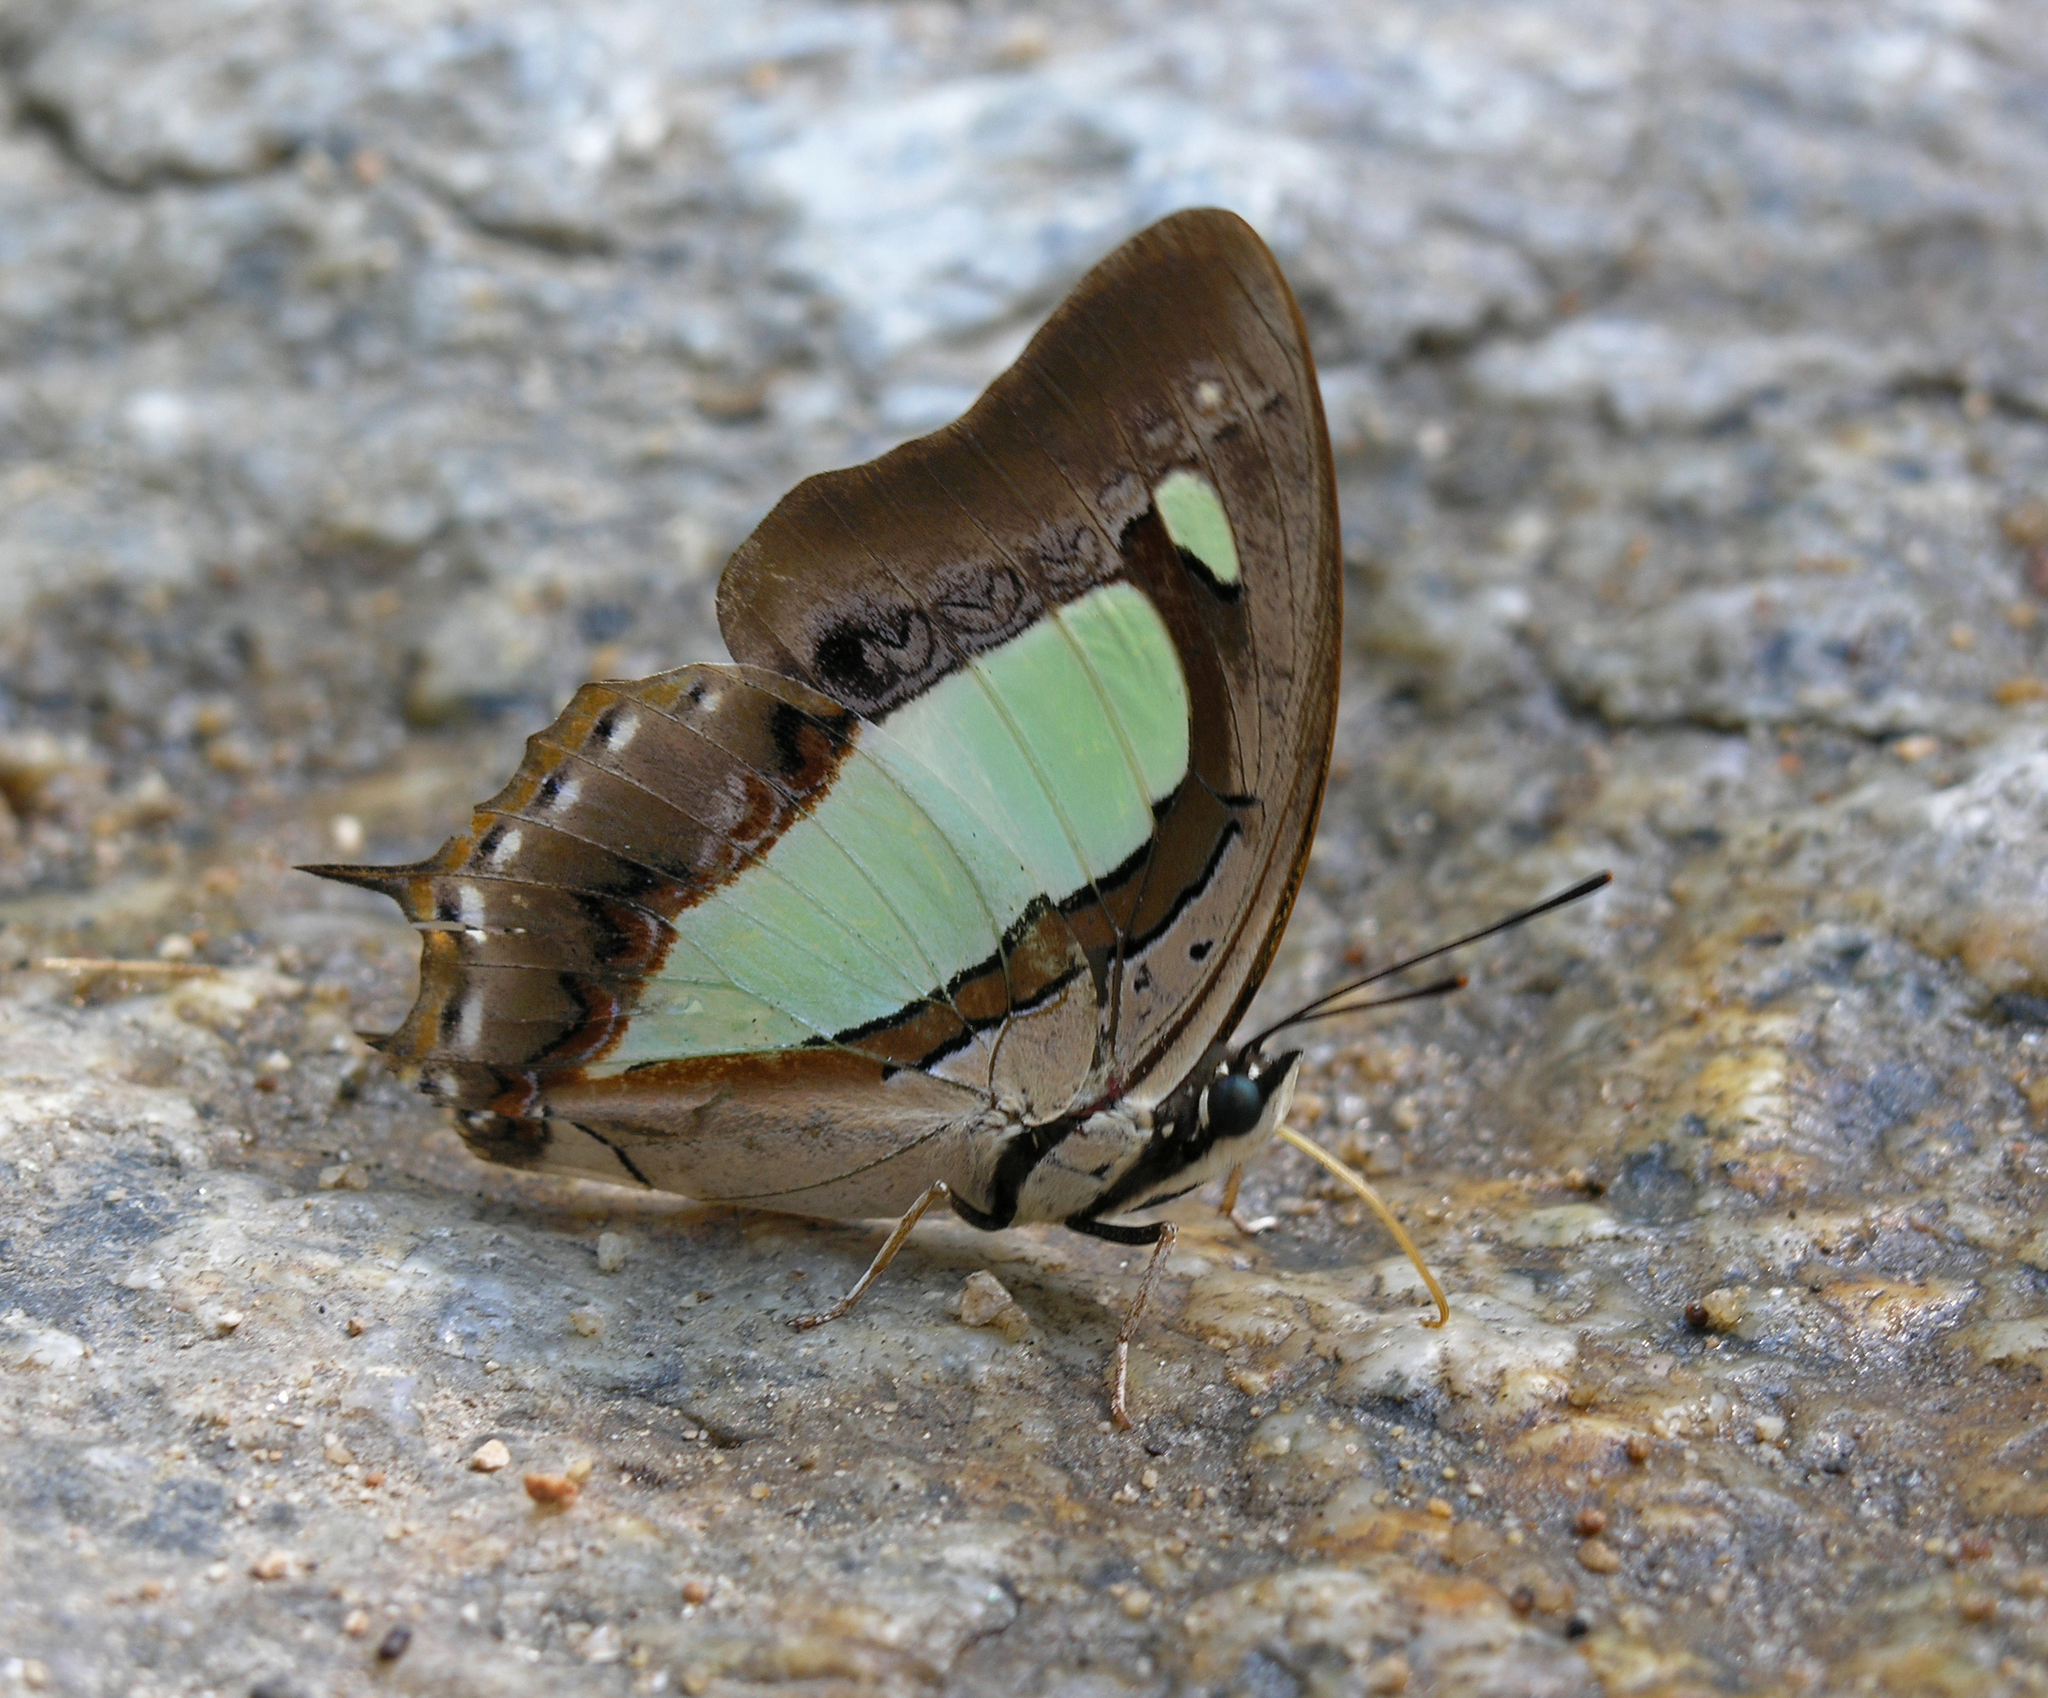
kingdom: Animalia
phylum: Arthropoda
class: Insecta
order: Lepidoptera
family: Nymphalidae
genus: Polyura
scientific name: Polyura arja
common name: Pallid nawab
